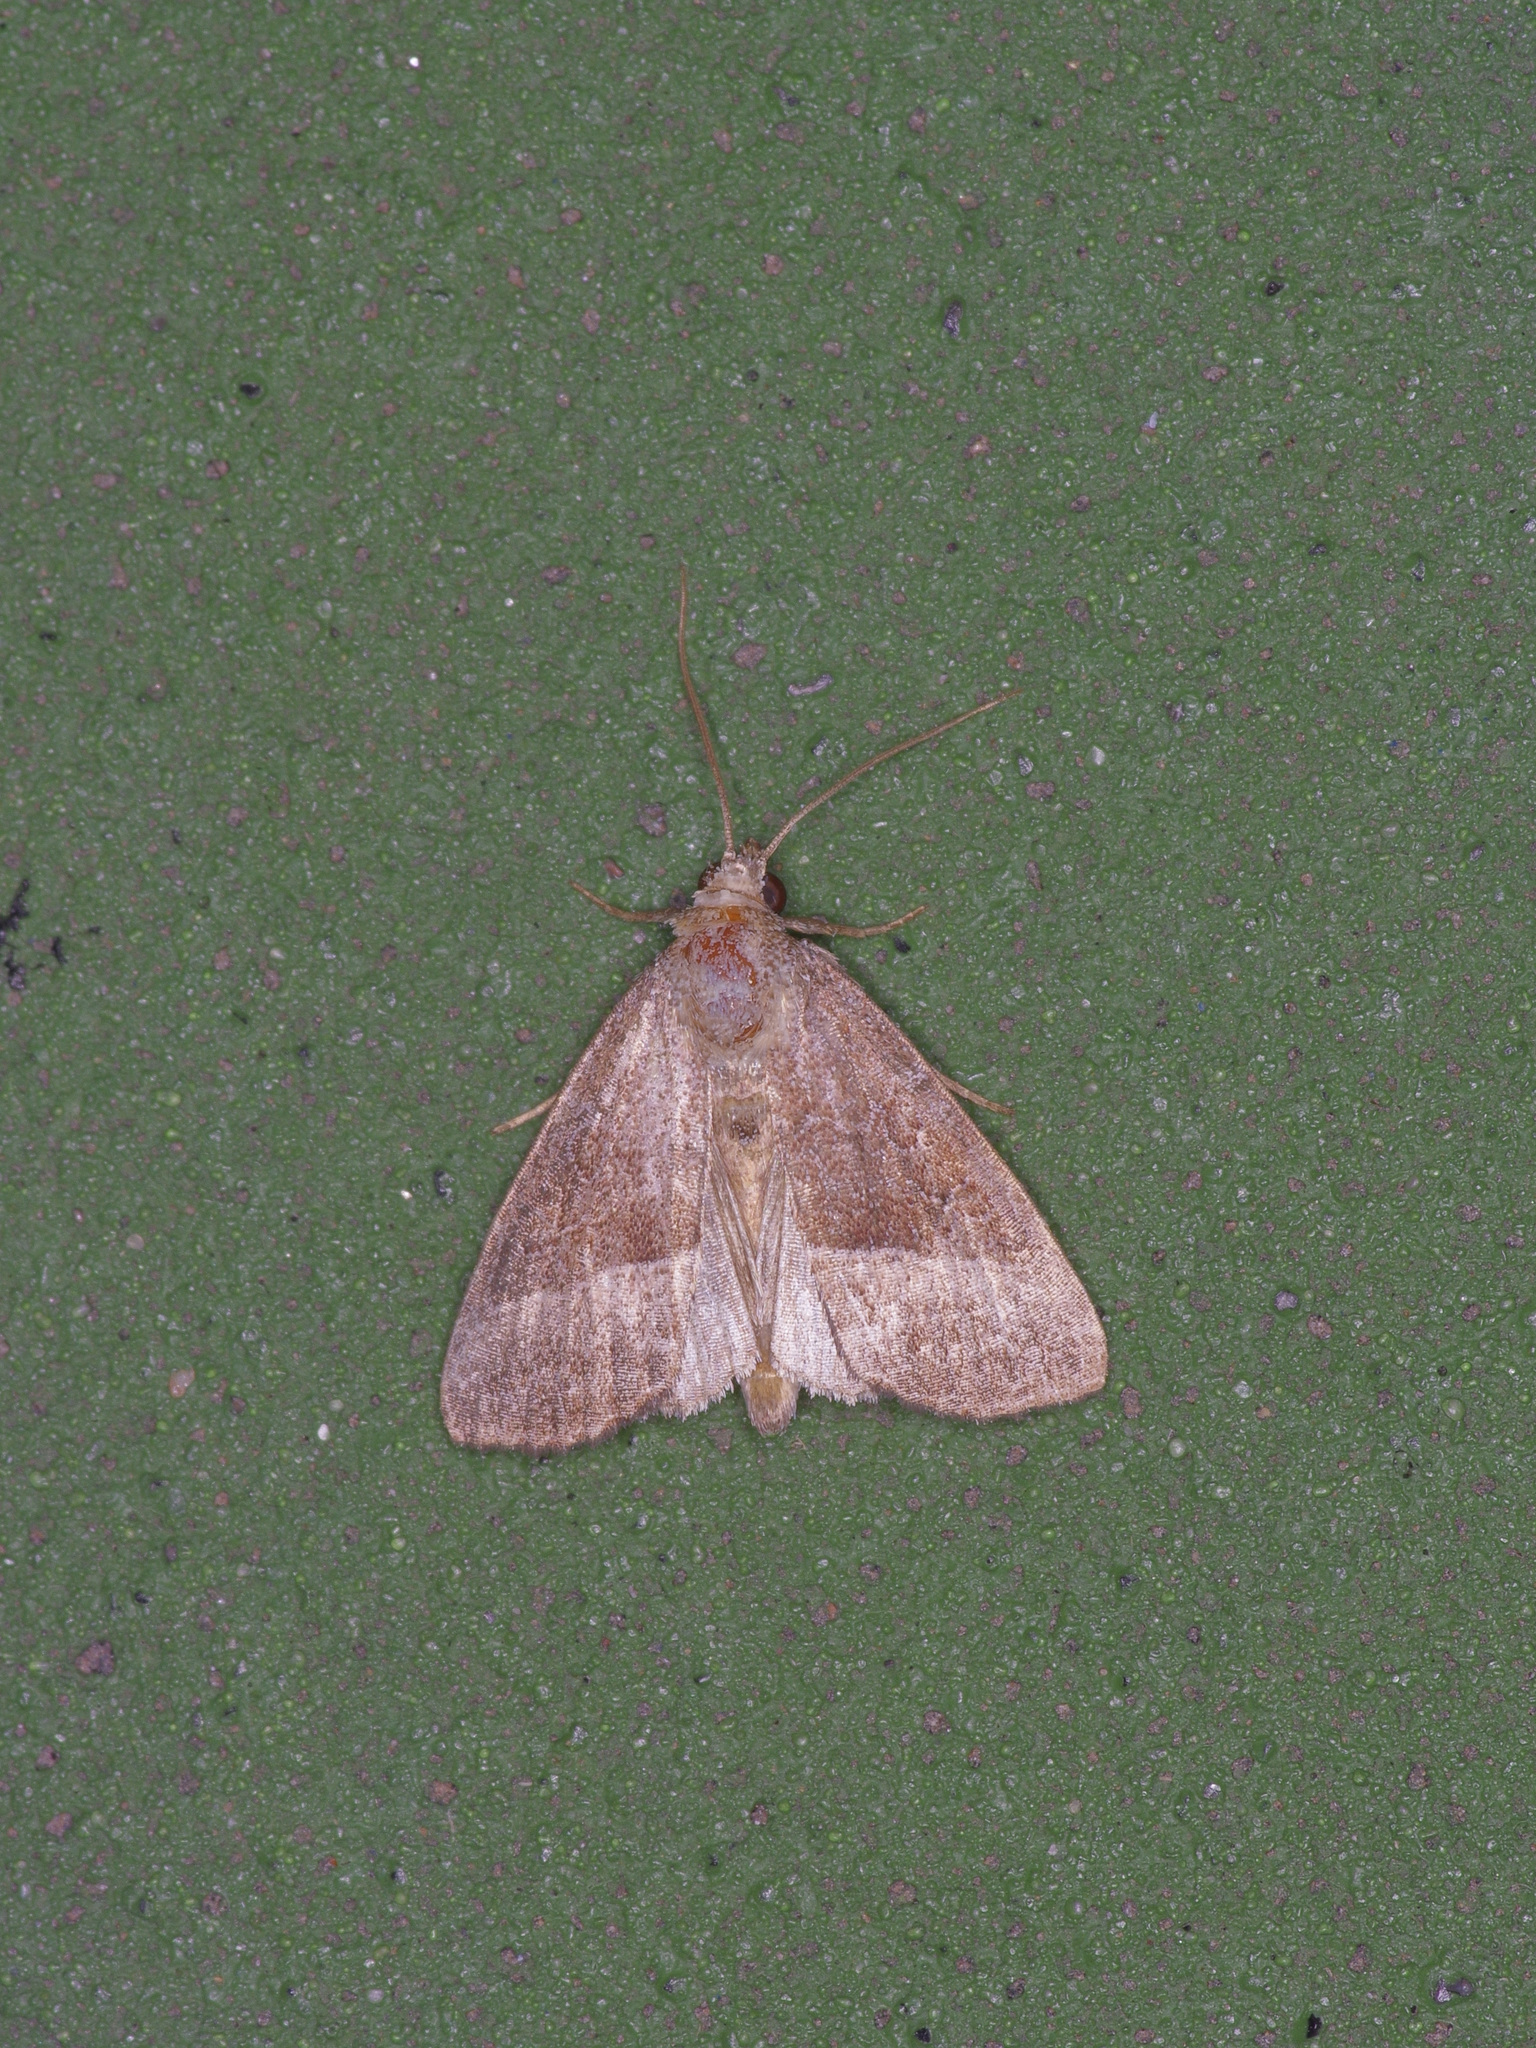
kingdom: Animalia
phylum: Arthropoda
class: Insecta
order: Lepidoptera
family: Noctuidae
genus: Ogdoconta
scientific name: Ogdoconta cinereola
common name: Common pinkband
